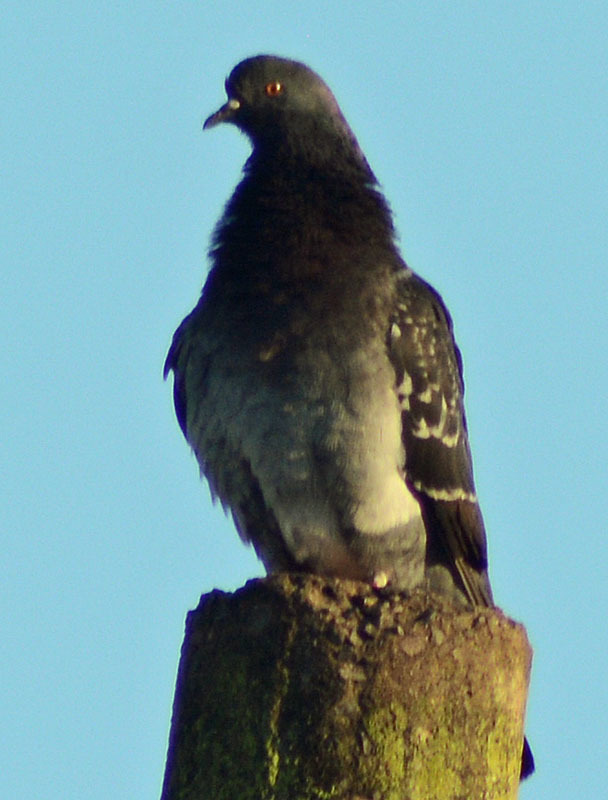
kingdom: Animalia
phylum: Chordata
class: Aves
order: Columbiformes
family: Columbidae
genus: Columba
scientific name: Columba livia
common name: Rock pigeon
